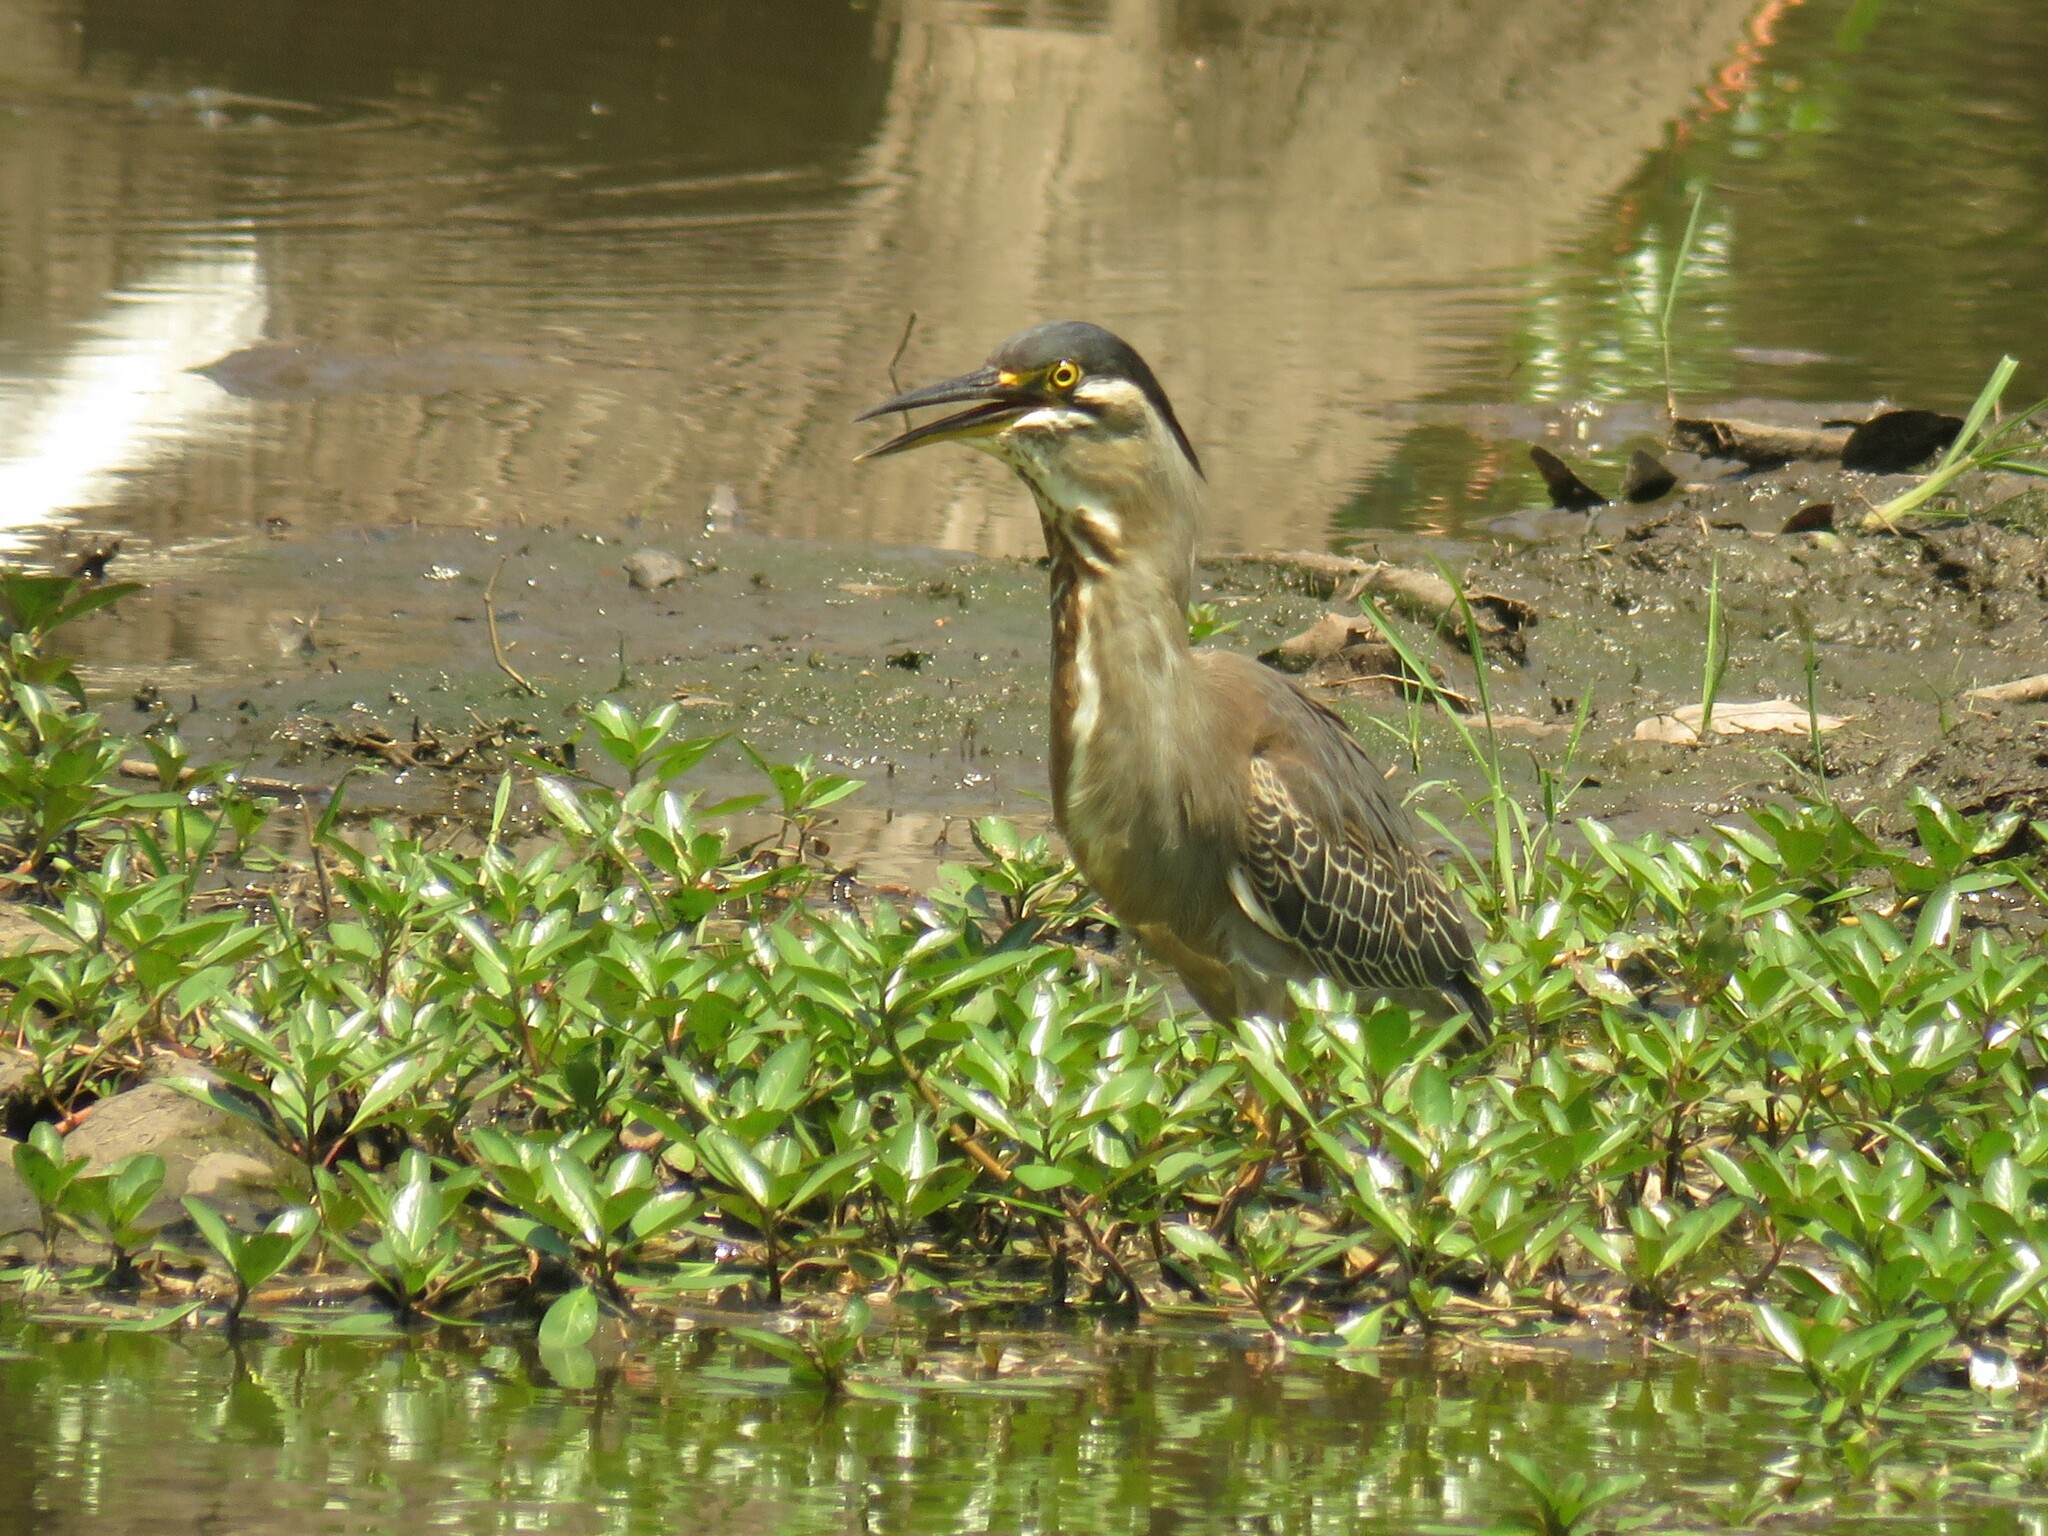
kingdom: Animalia
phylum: Chordata
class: Aves
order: Pelecaniformes
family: Ardeidae
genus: Butorides
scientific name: Butorides striata
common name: Striated heron
